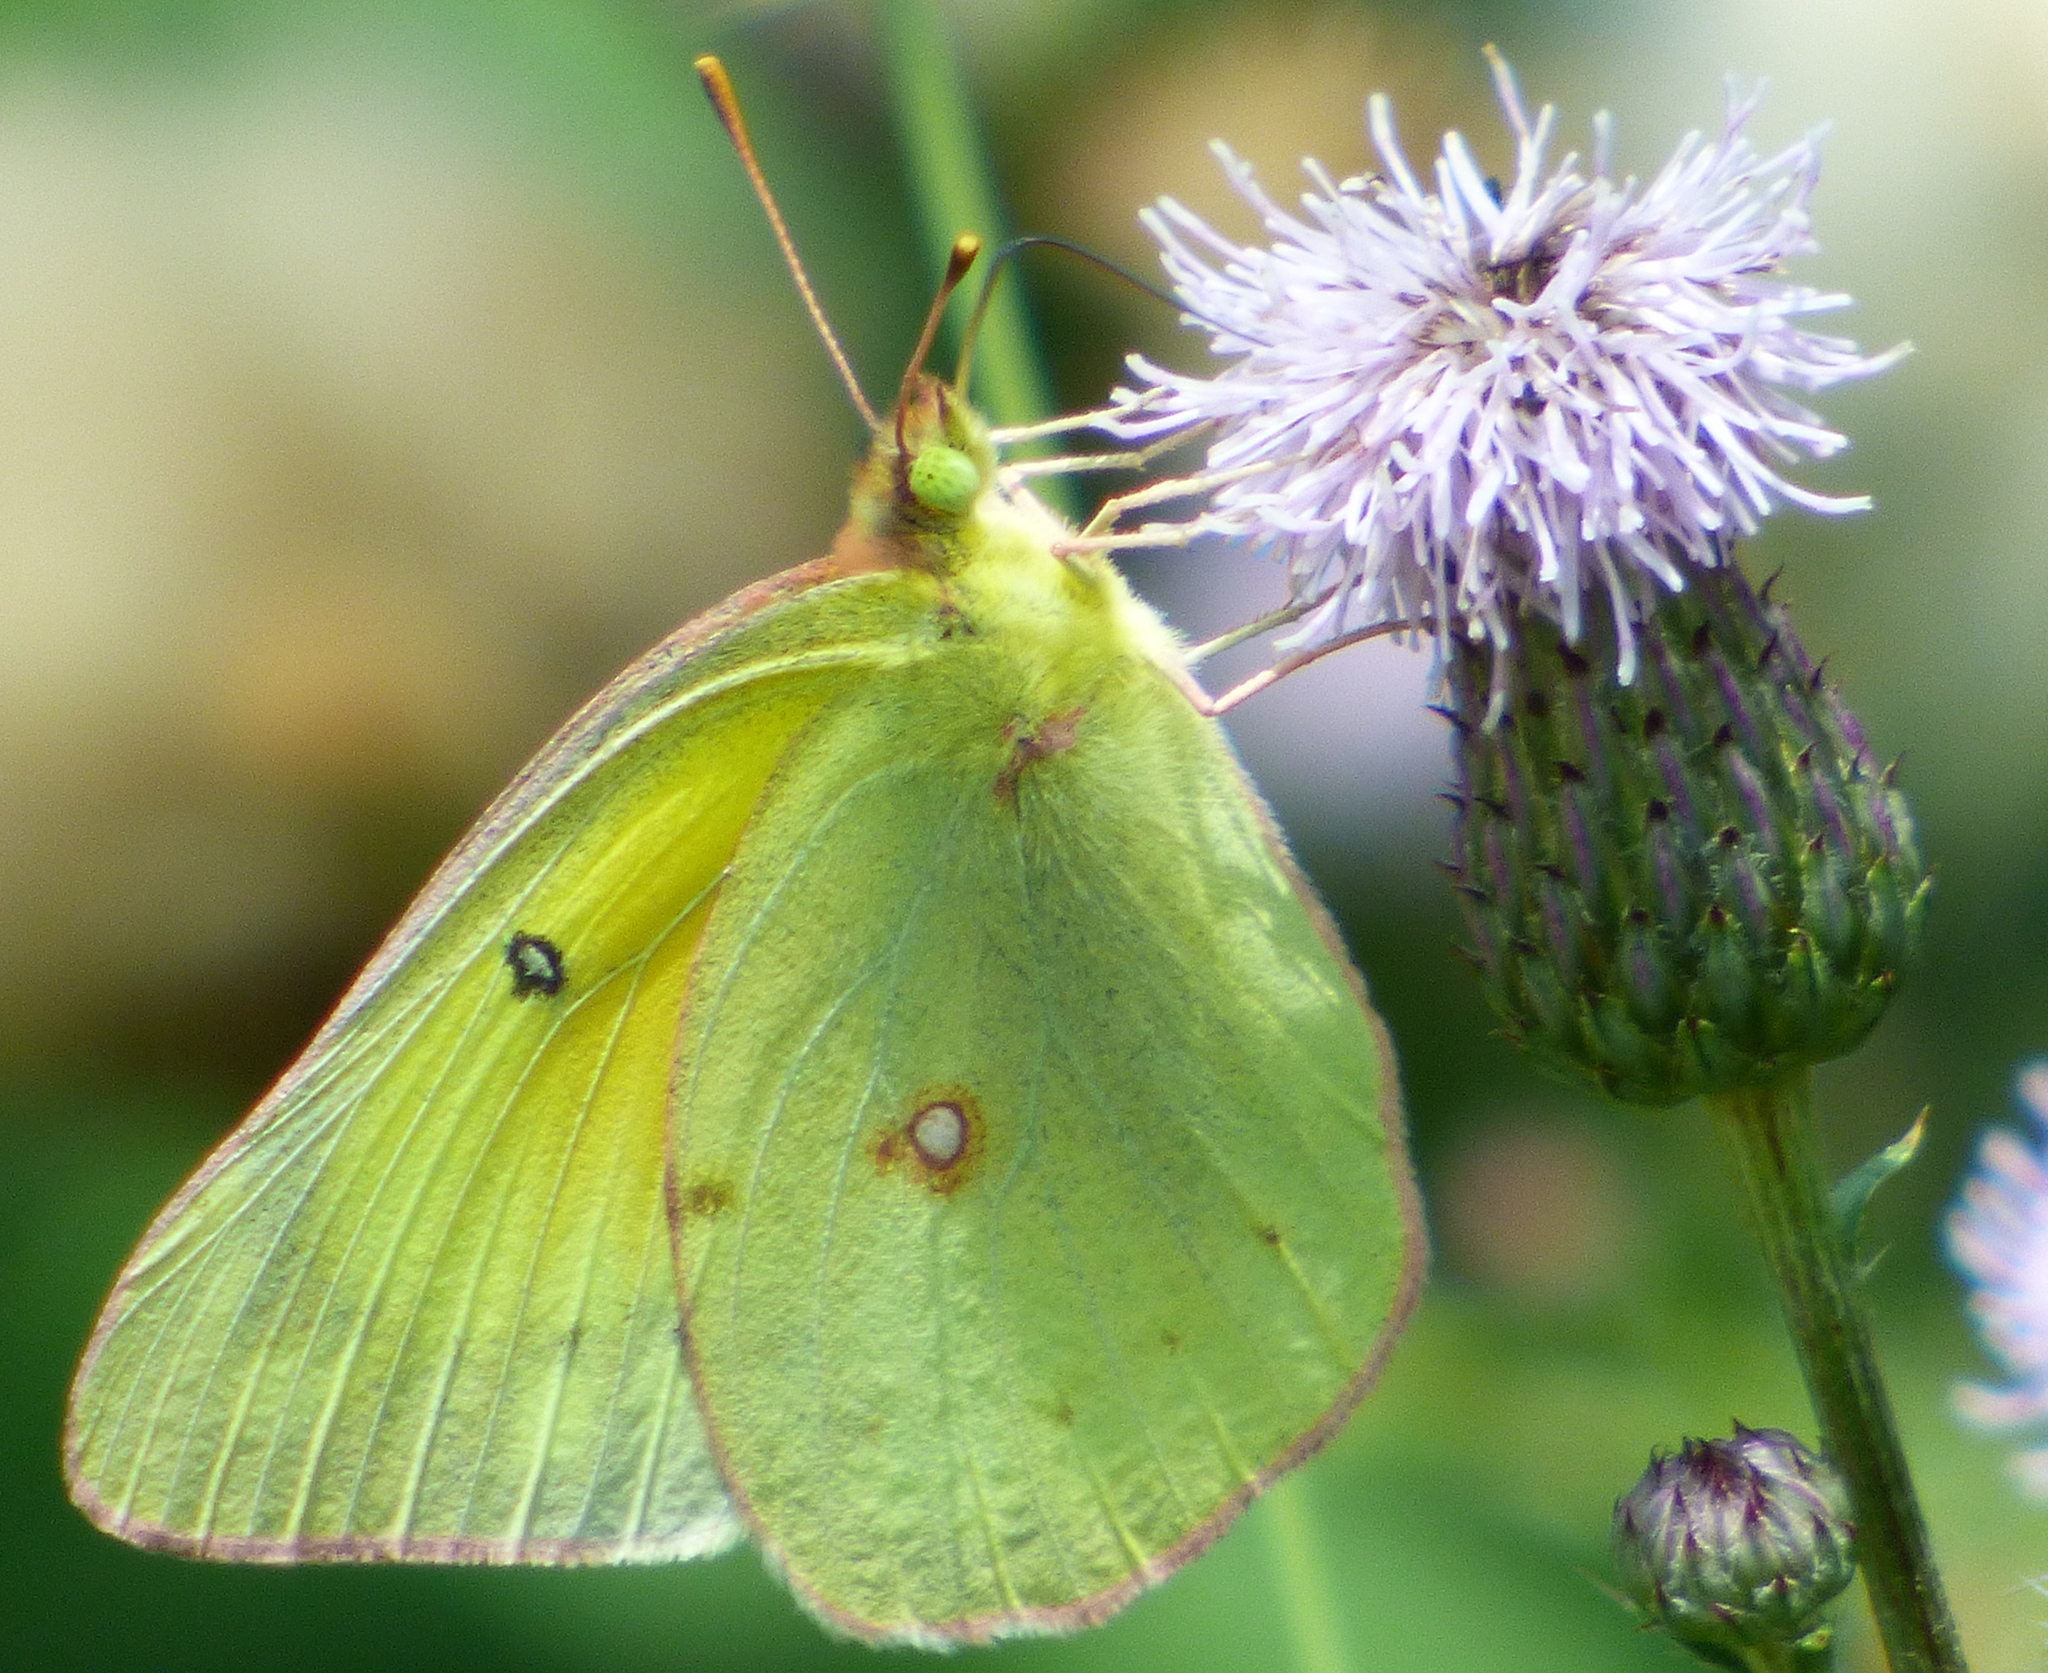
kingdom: Animalia
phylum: Arthropoda
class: Insecta
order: Lepidoptera
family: Pieridae
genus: Colias
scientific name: Colias eurytheme
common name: Alfalfa butterfly
